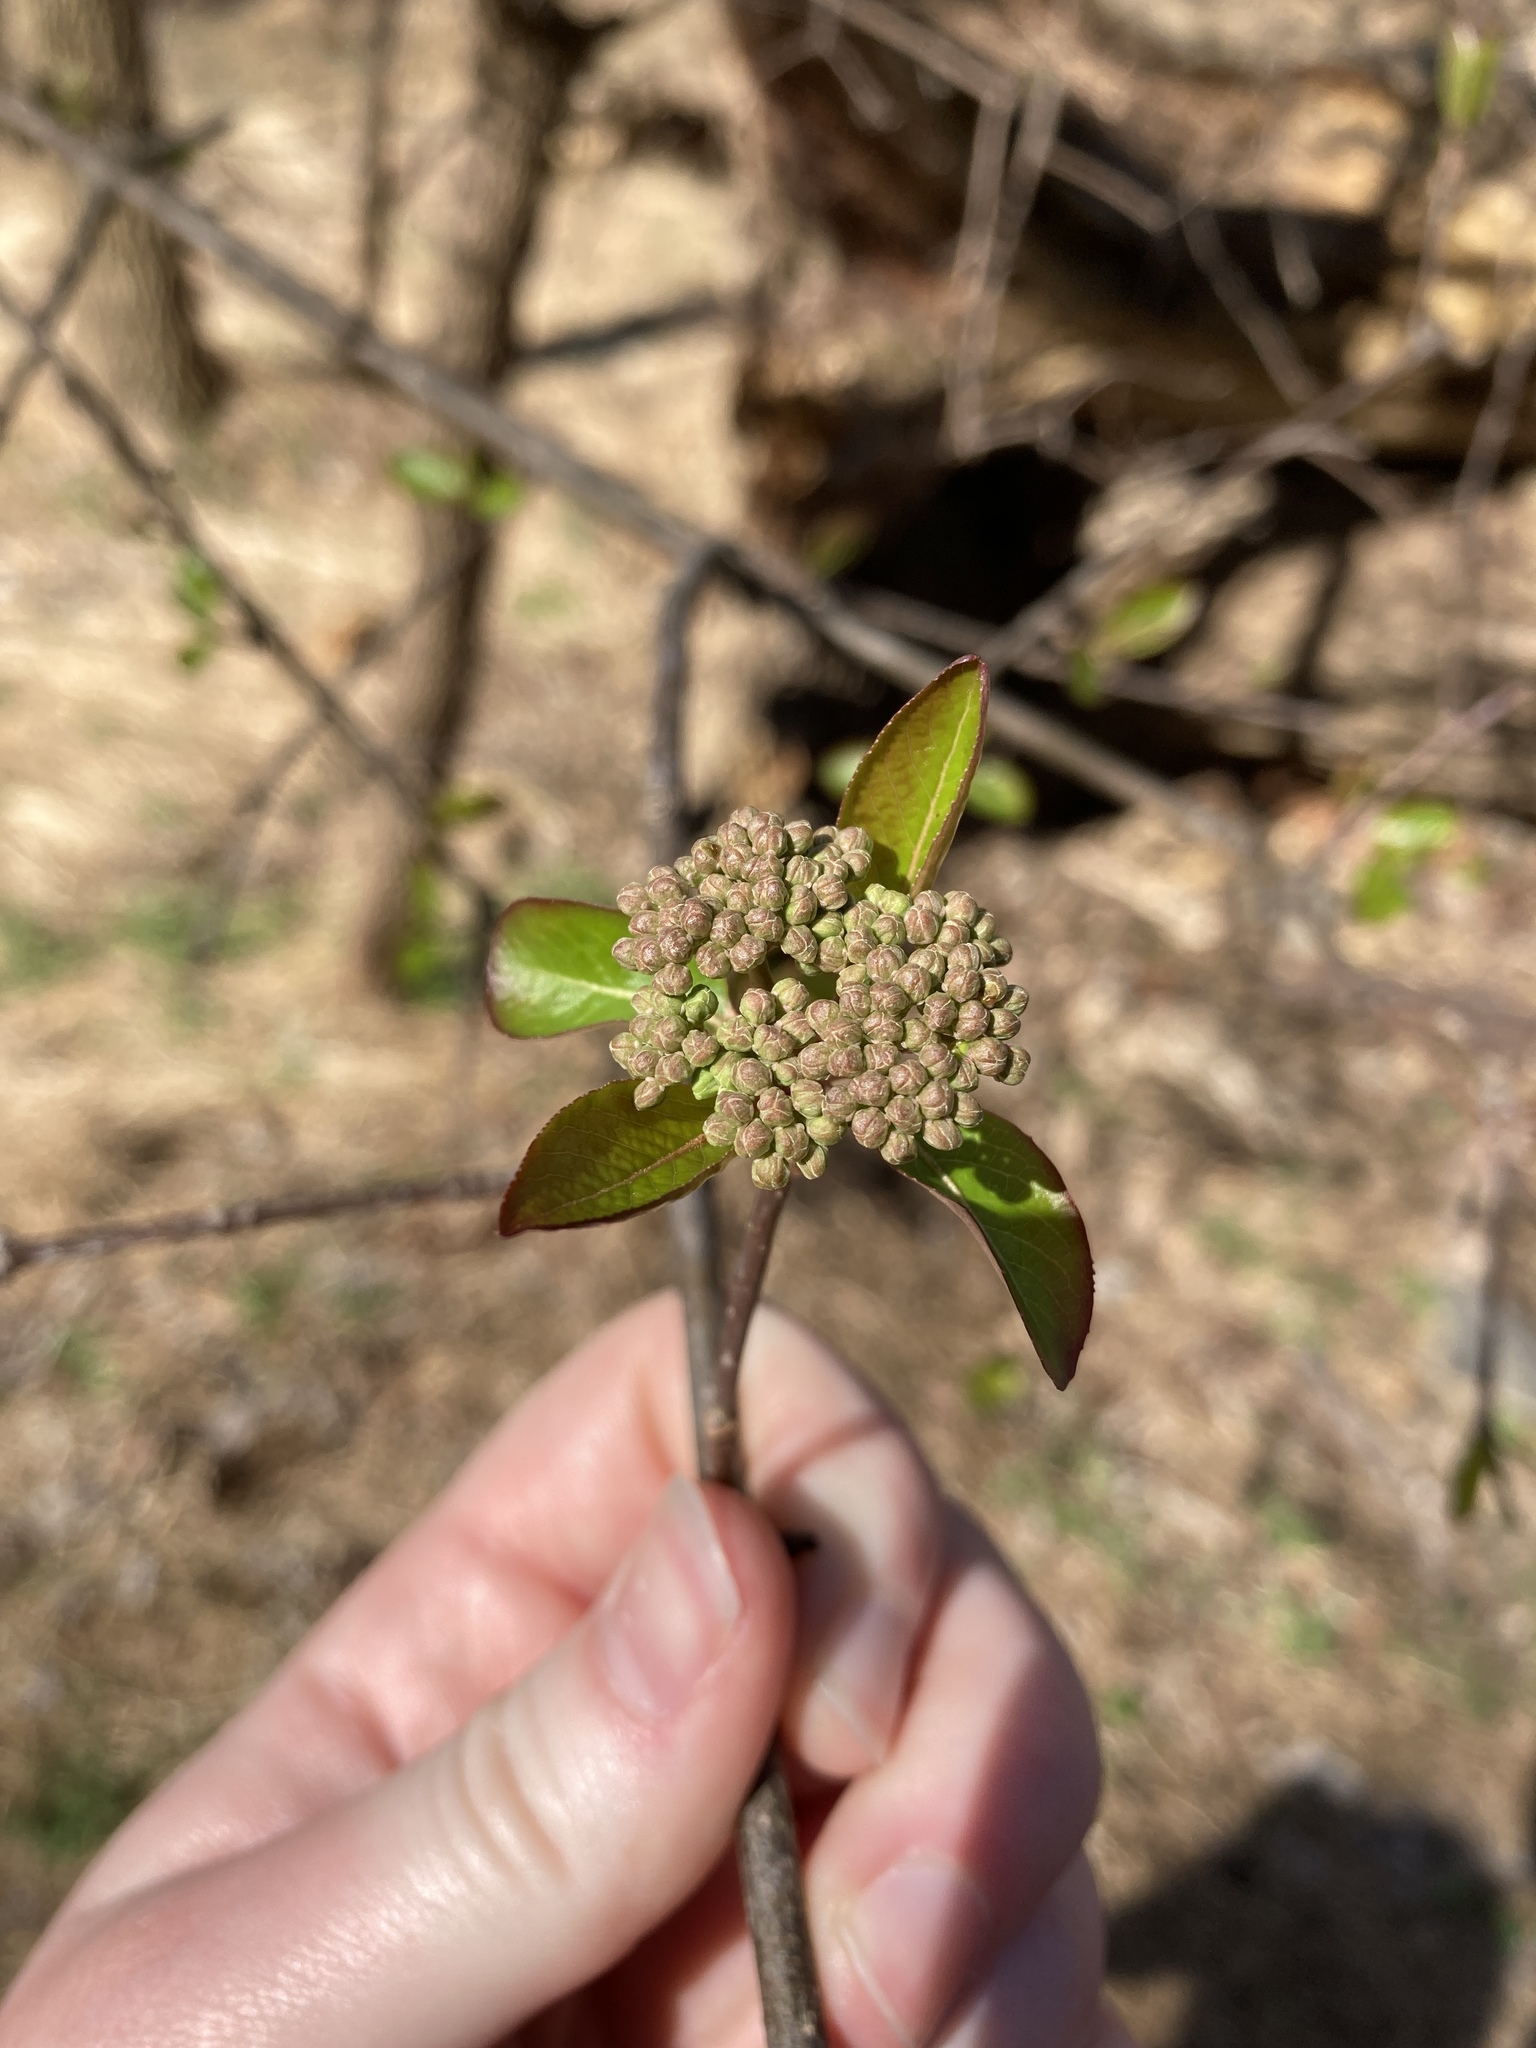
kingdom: Plantae
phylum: Tracheophyta
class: Magnoliopsida
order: Dipsacales
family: Viburnaceae
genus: Viburnum
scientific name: Viburnum prunifolium
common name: Black haw
